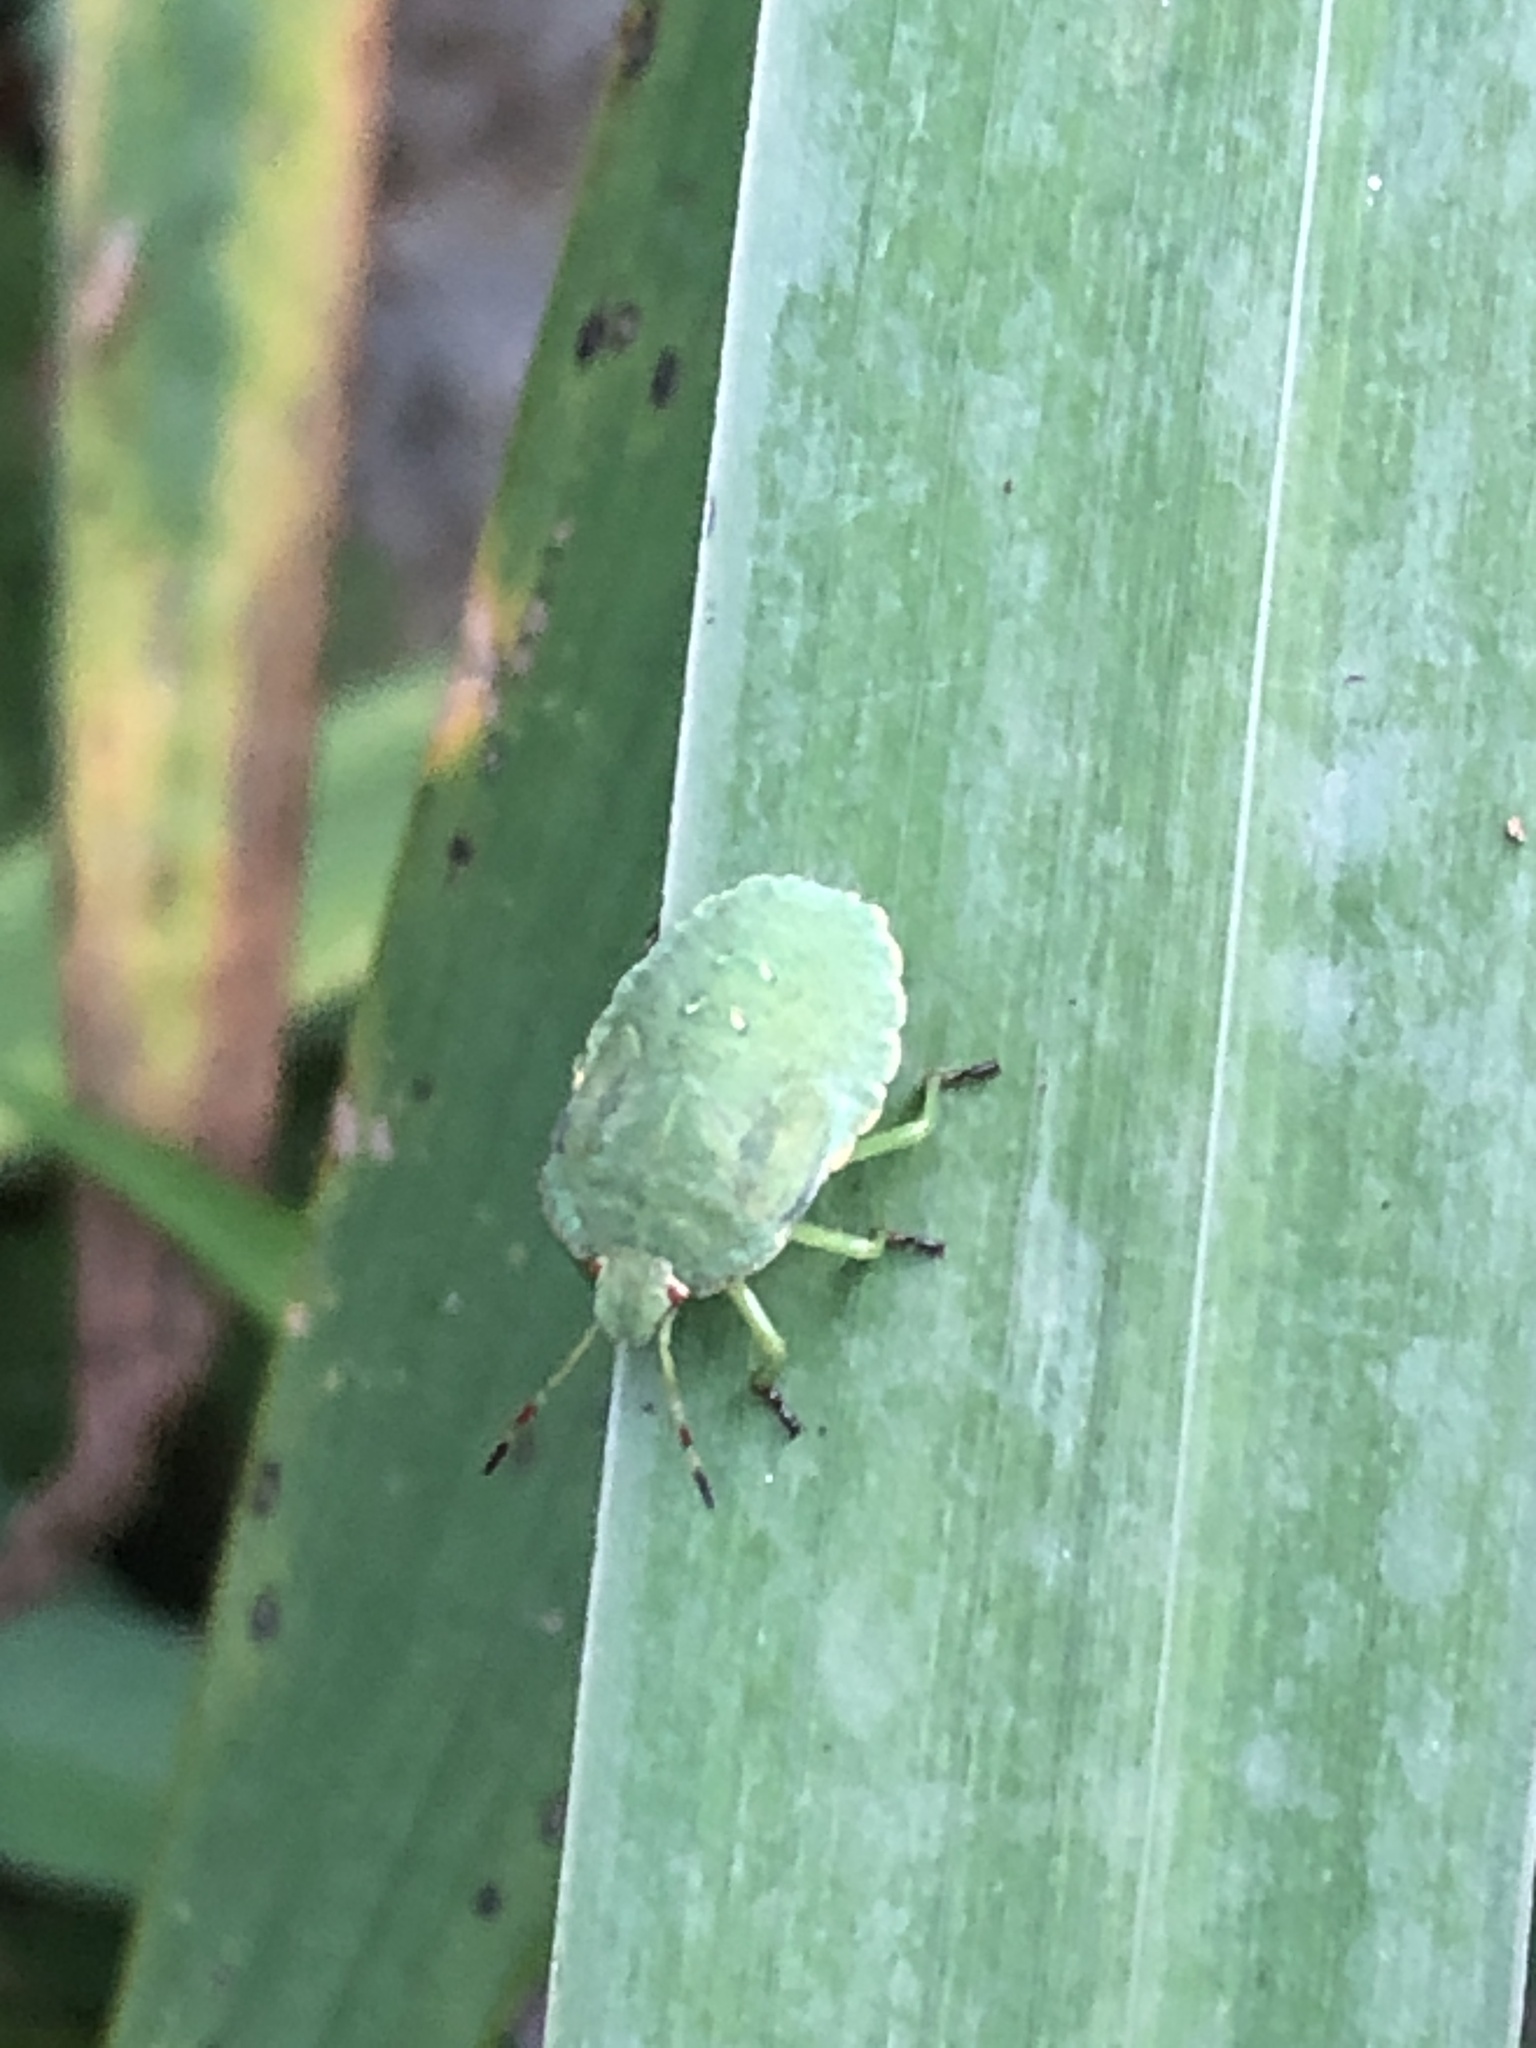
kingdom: Animalia
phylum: Arthropoda
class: Insecta
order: Hemiptera
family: Pentatomidae
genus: Palomena
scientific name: Palomena prasina
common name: Green shieldbug
